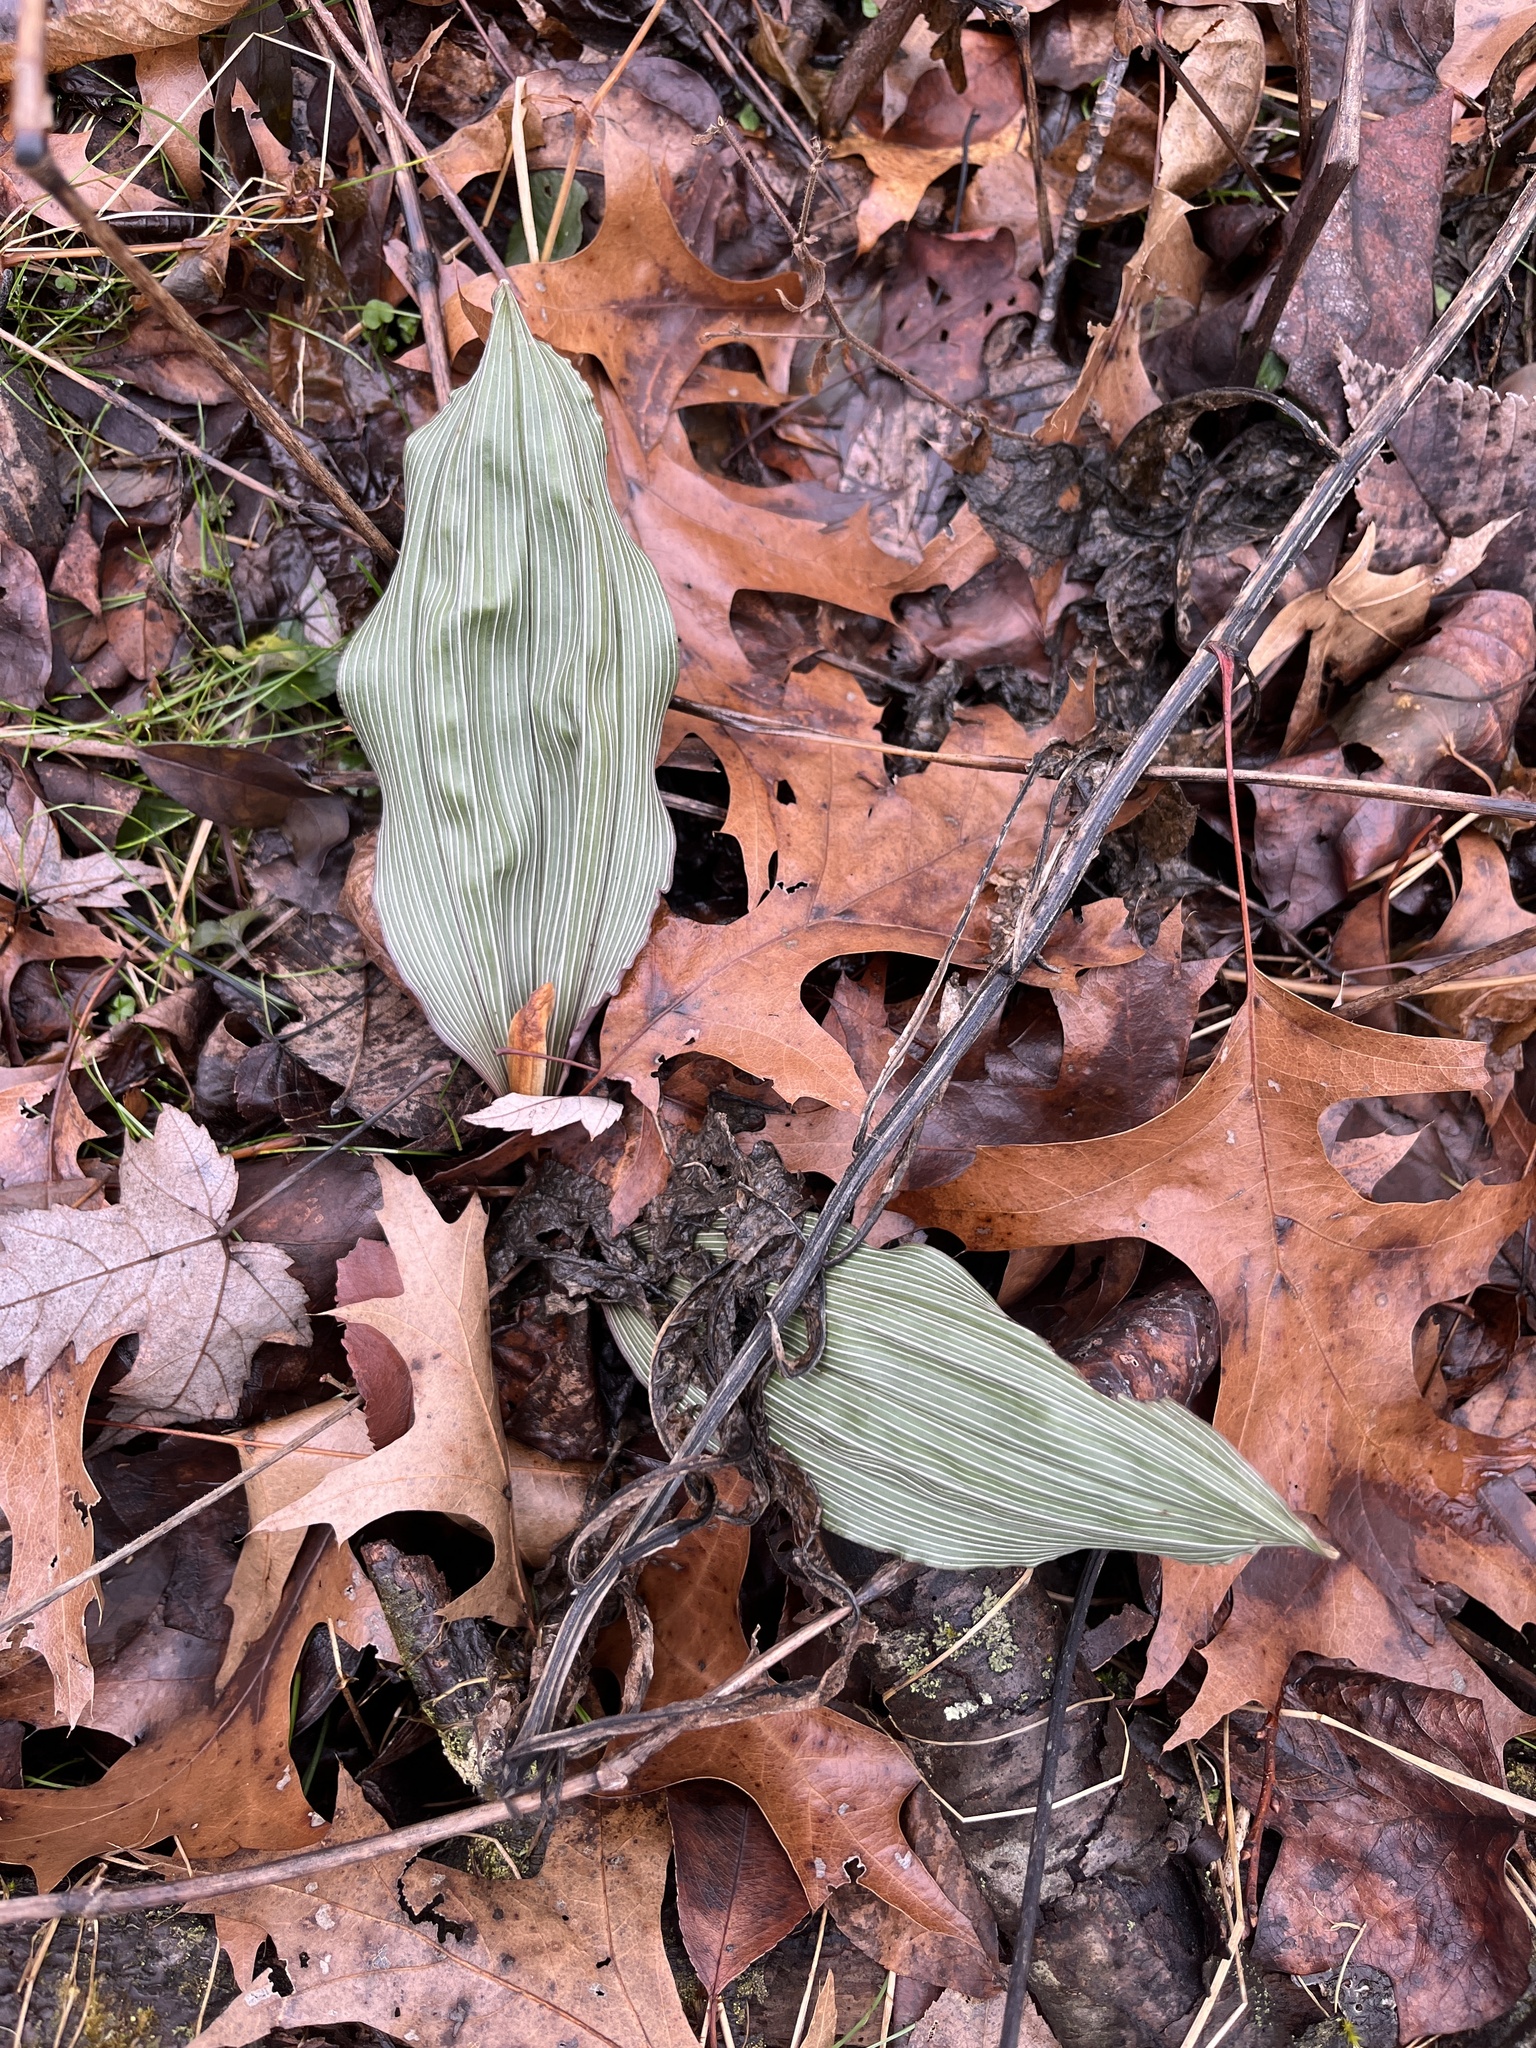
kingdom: Plantae
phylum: Tracheophyta
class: Liliopsida
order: Asparagales
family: Orchidaceae
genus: Aplectrum
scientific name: Aplectrum hyemale
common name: Adam-and-eve
